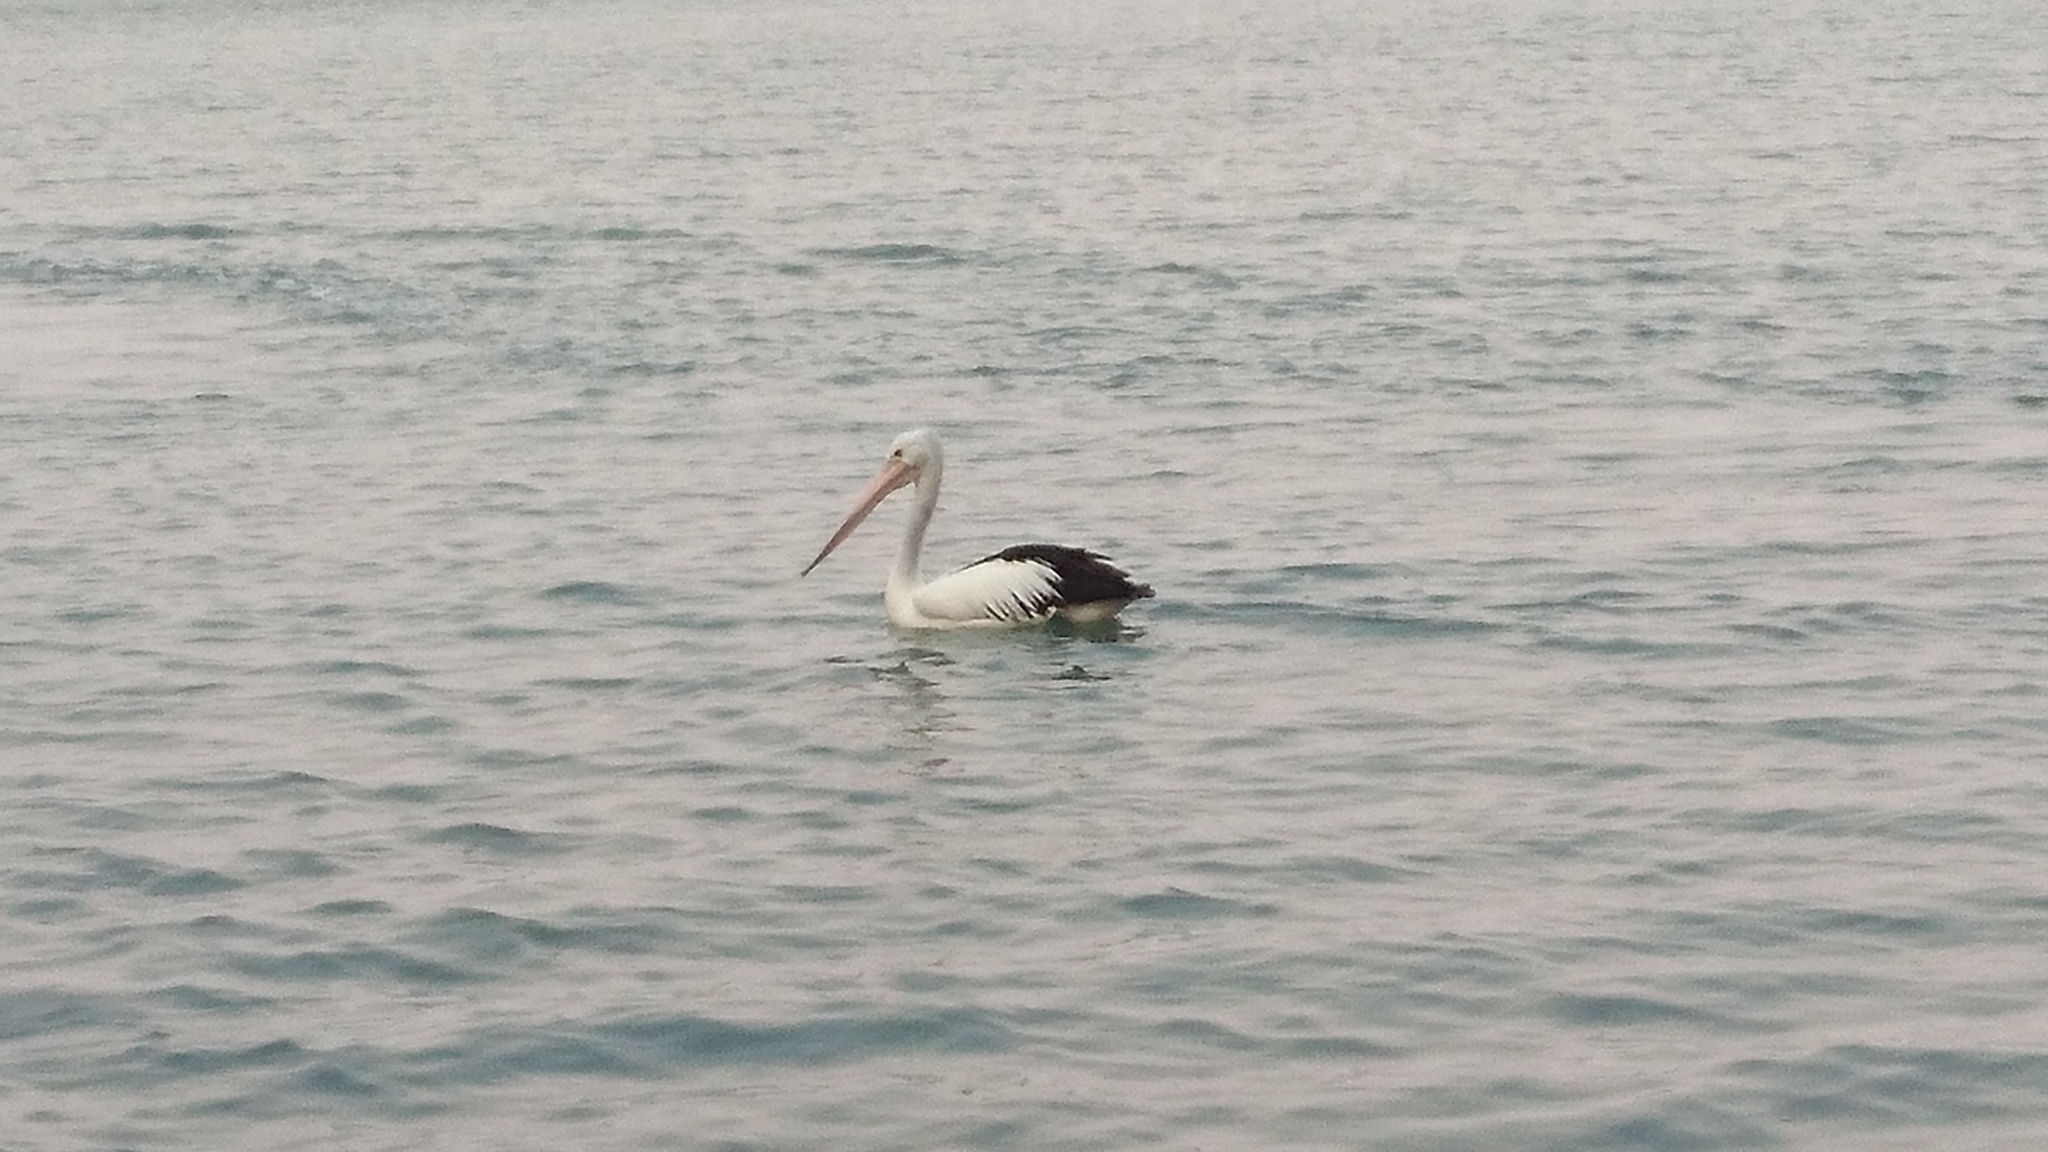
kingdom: Animalia
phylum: Chordata
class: Aves
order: Pelecaniformes
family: Pelecanidae
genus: Pelecanus
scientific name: Pelecanus conspicillatus
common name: Australian pelican
